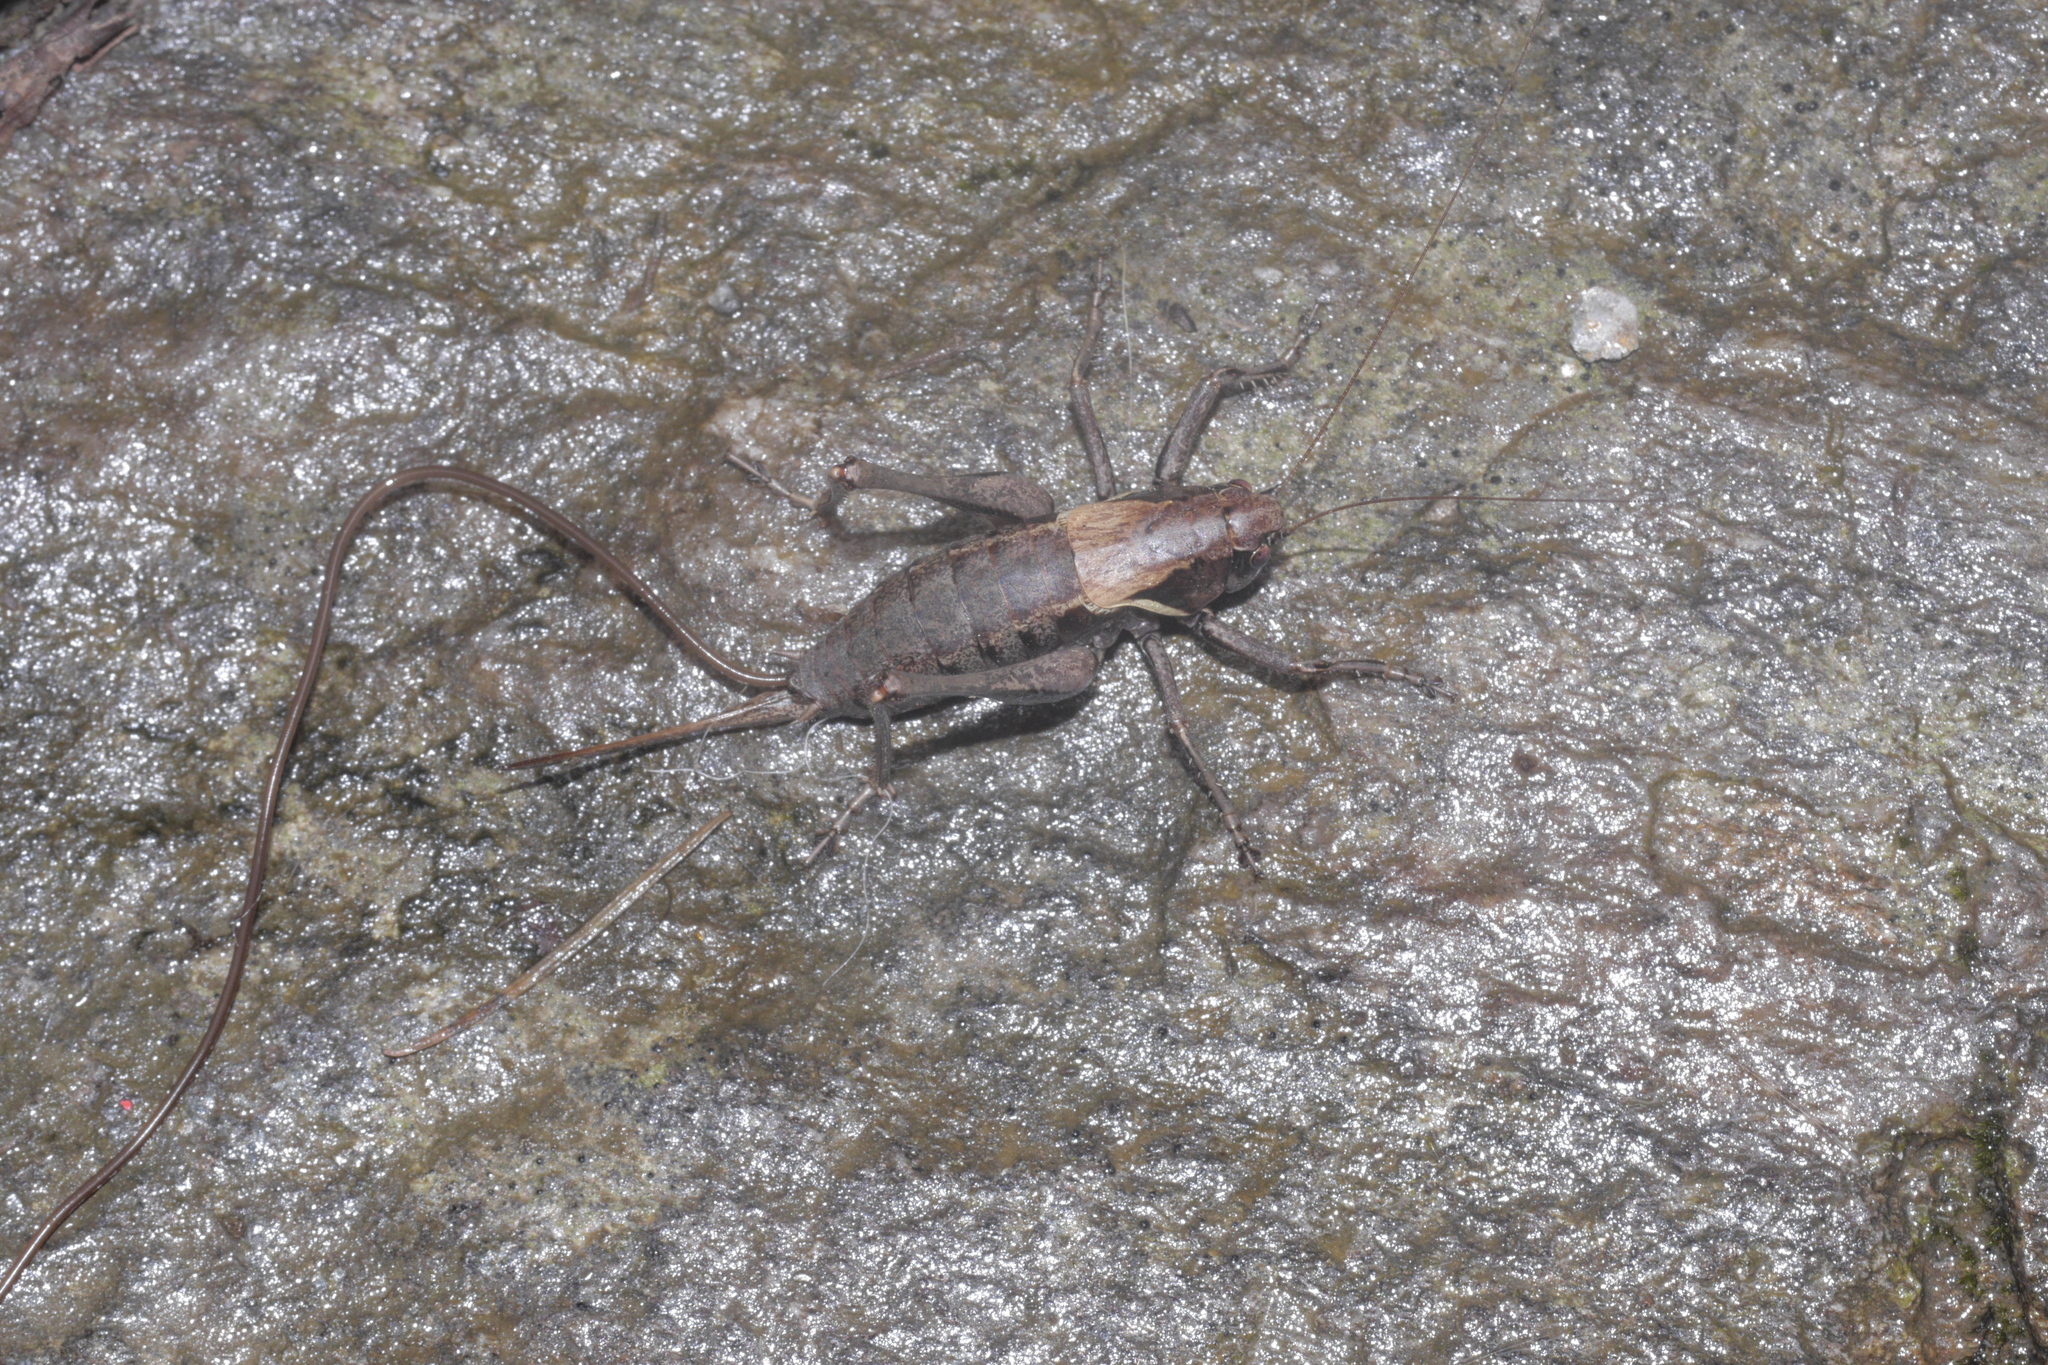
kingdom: Animalia
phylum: Arthropoda
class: Insecta
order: Orthoptera
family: Tettigoniidae
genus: Pholidoptera
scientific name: Pholidoptera aptera
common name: Alpine dark bush-cricket
